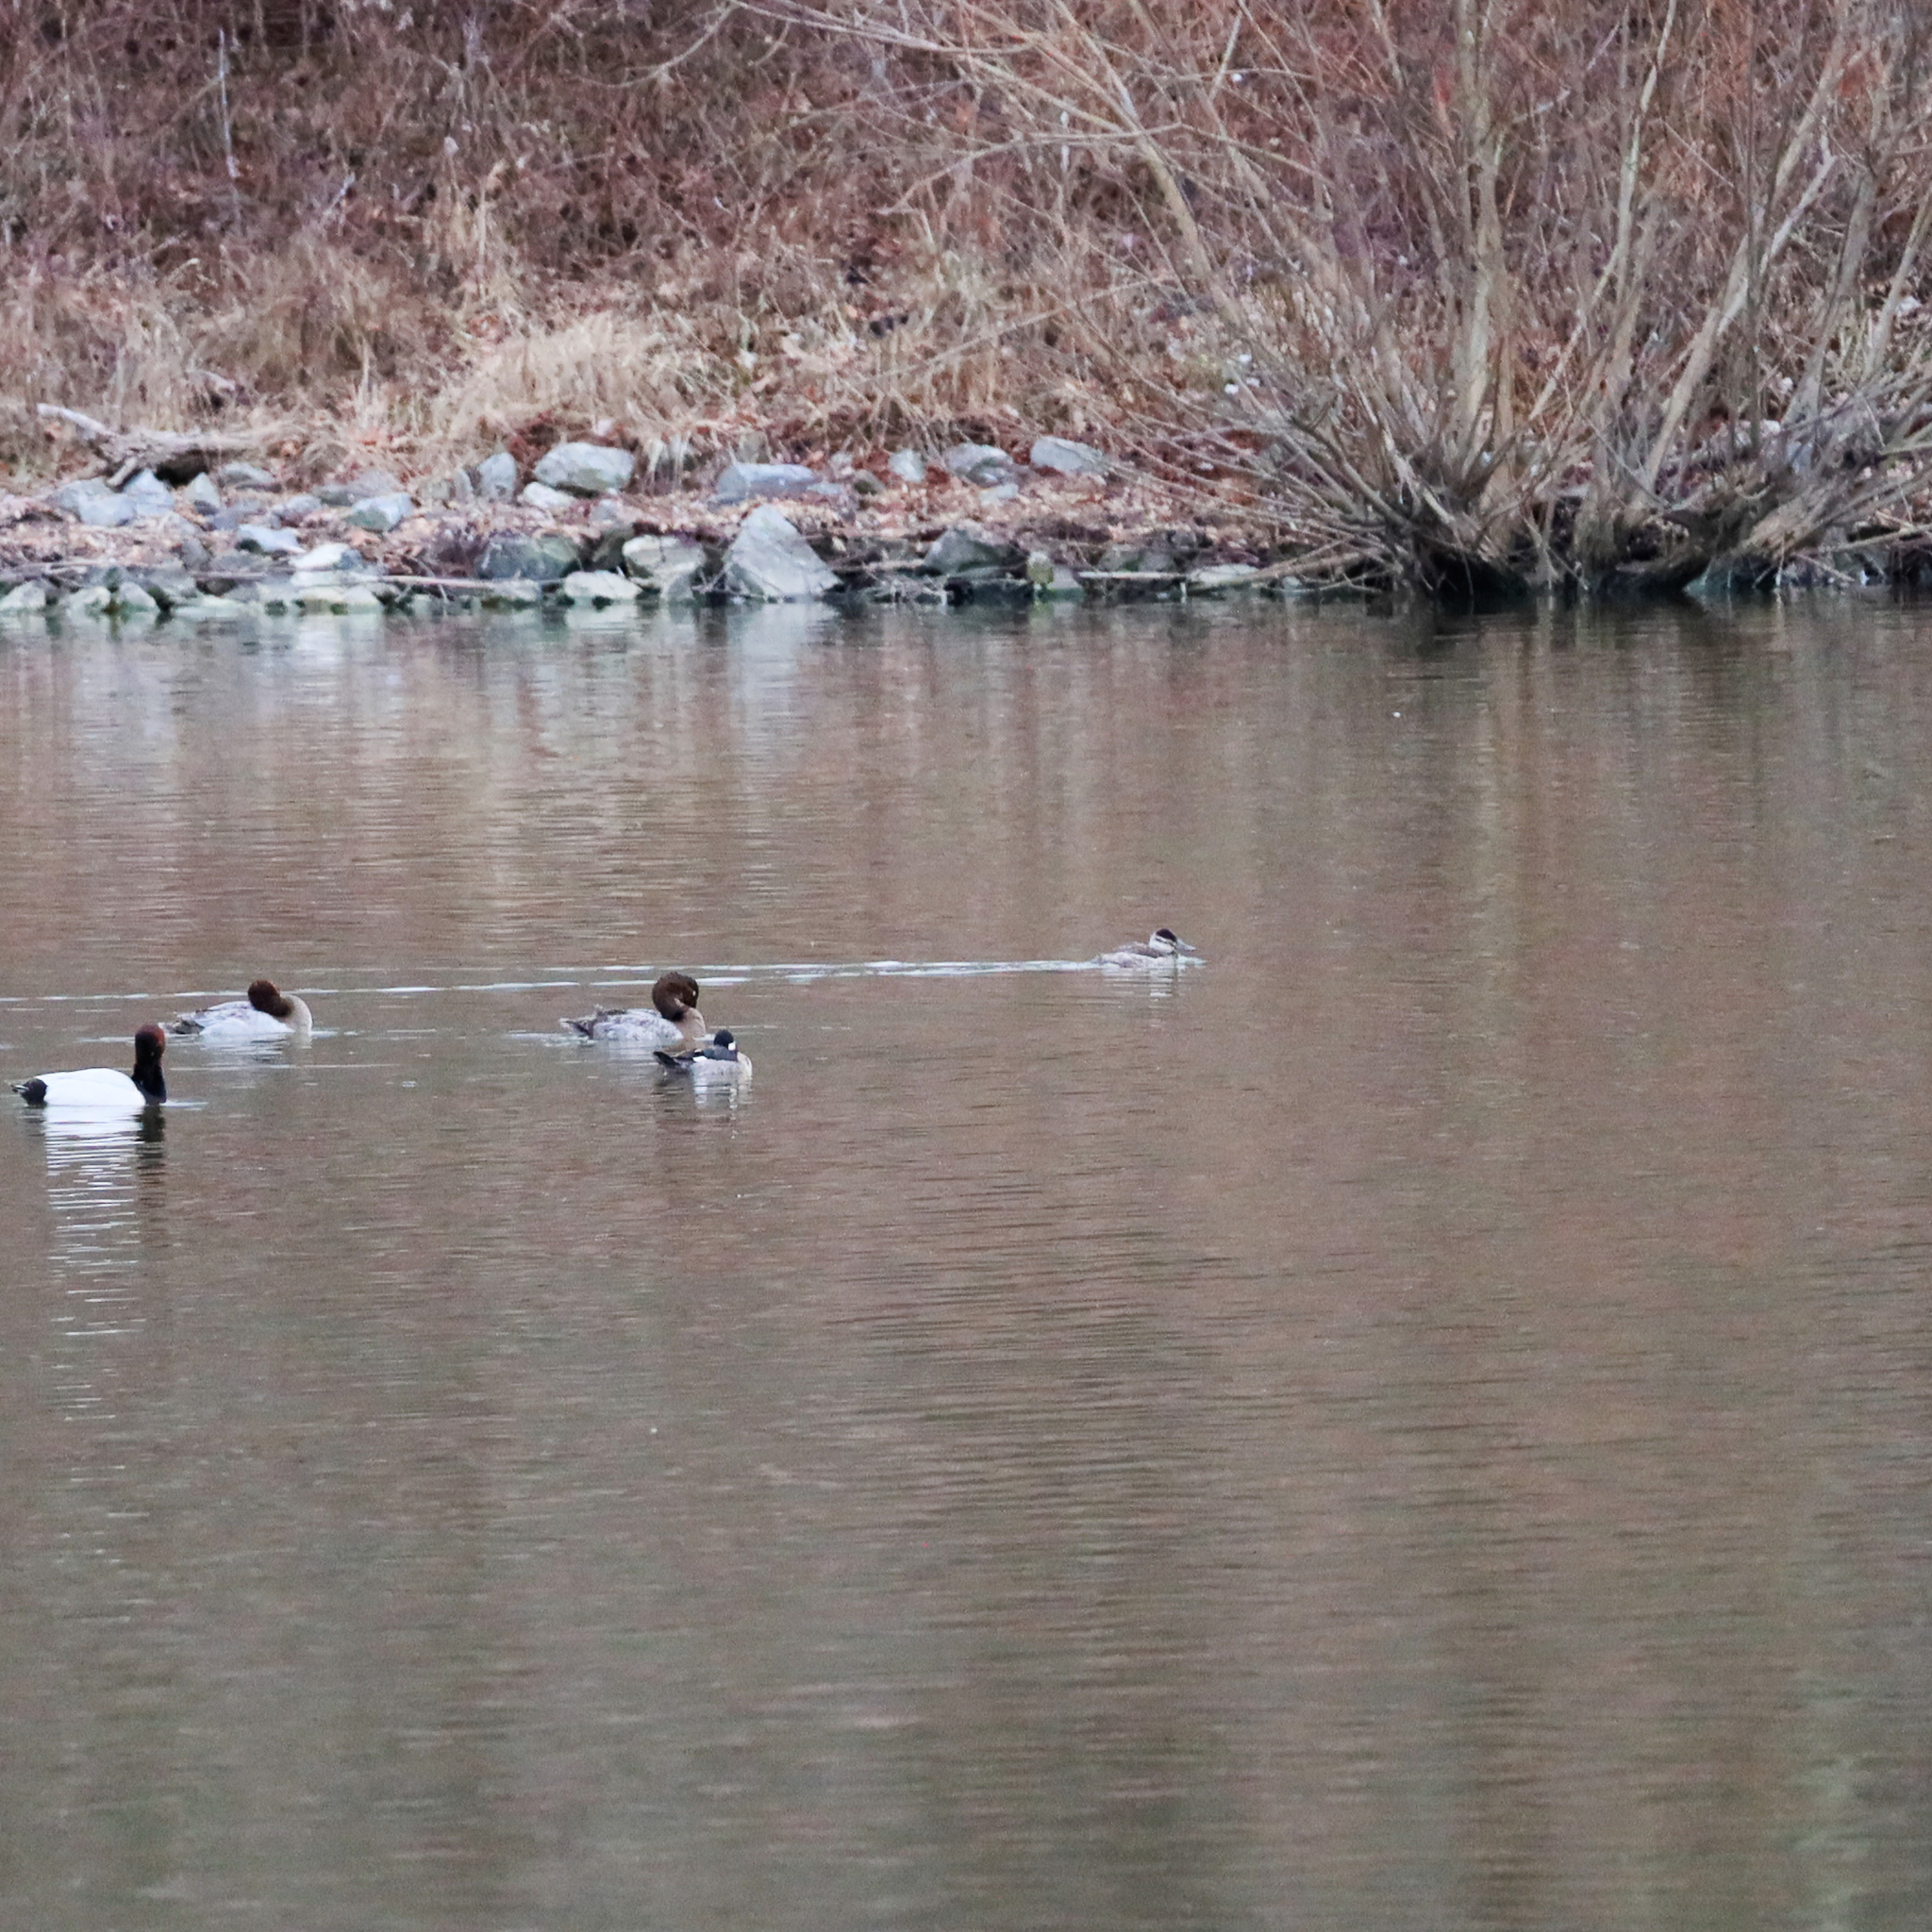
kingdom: Animalia
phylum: Chordata
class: Aves
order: Anseriformes
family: Anatidae
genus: Oxyura
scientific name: Oxyura jamaicensis
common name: Ruddy duck
